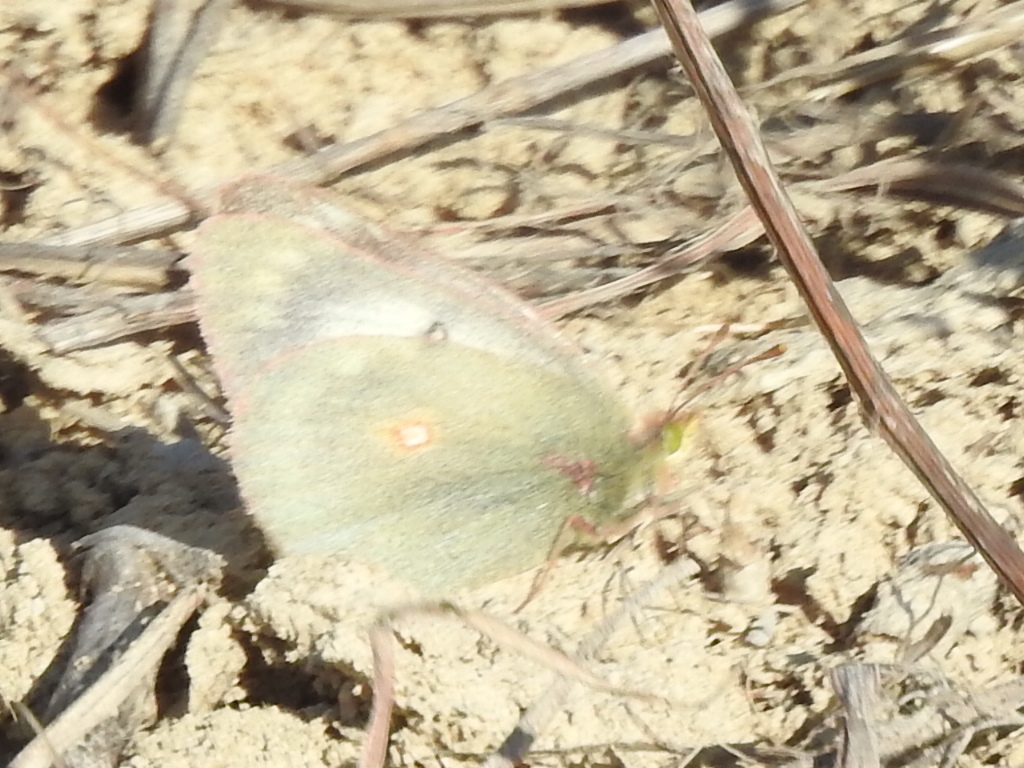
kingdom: Animalia
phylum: Arthropoda
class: Insecta
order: Lepidoptera
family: Pieridae
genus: Colias
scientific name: Colias eurytheme
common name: Alfalfa butterfly
